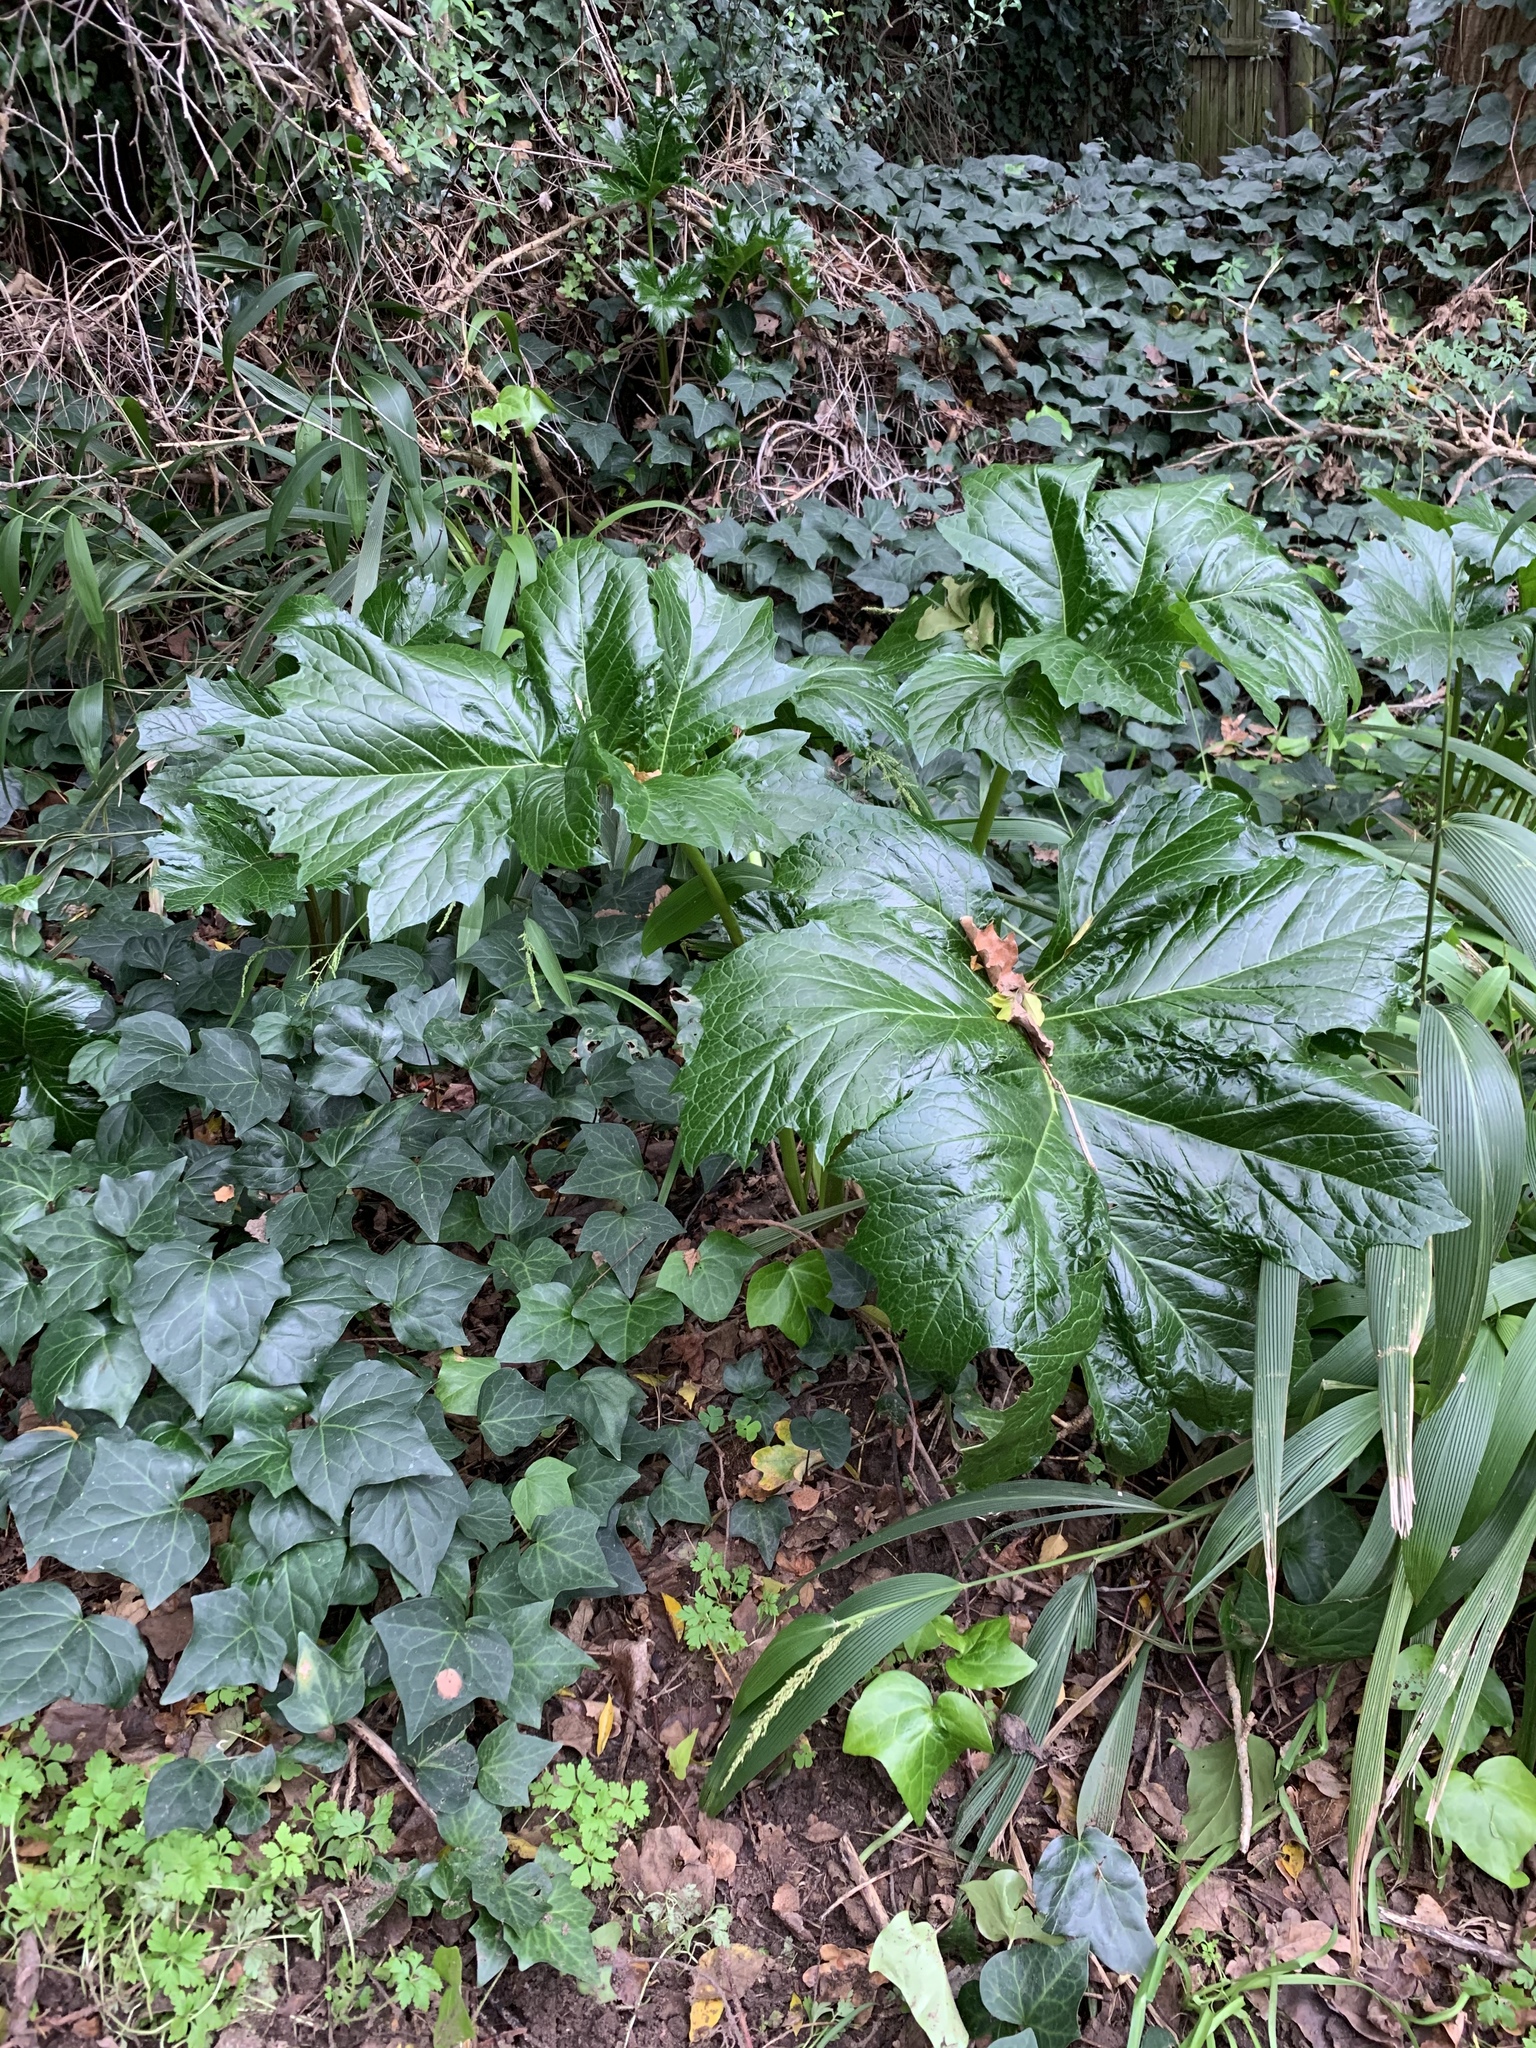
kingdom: Plantae
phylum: Tracheophyta
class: Magnoliopsida
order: Lamiales
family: Acanthaceae
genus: Acanthus
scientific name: Acanthus mollis
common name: Bear's-breech
